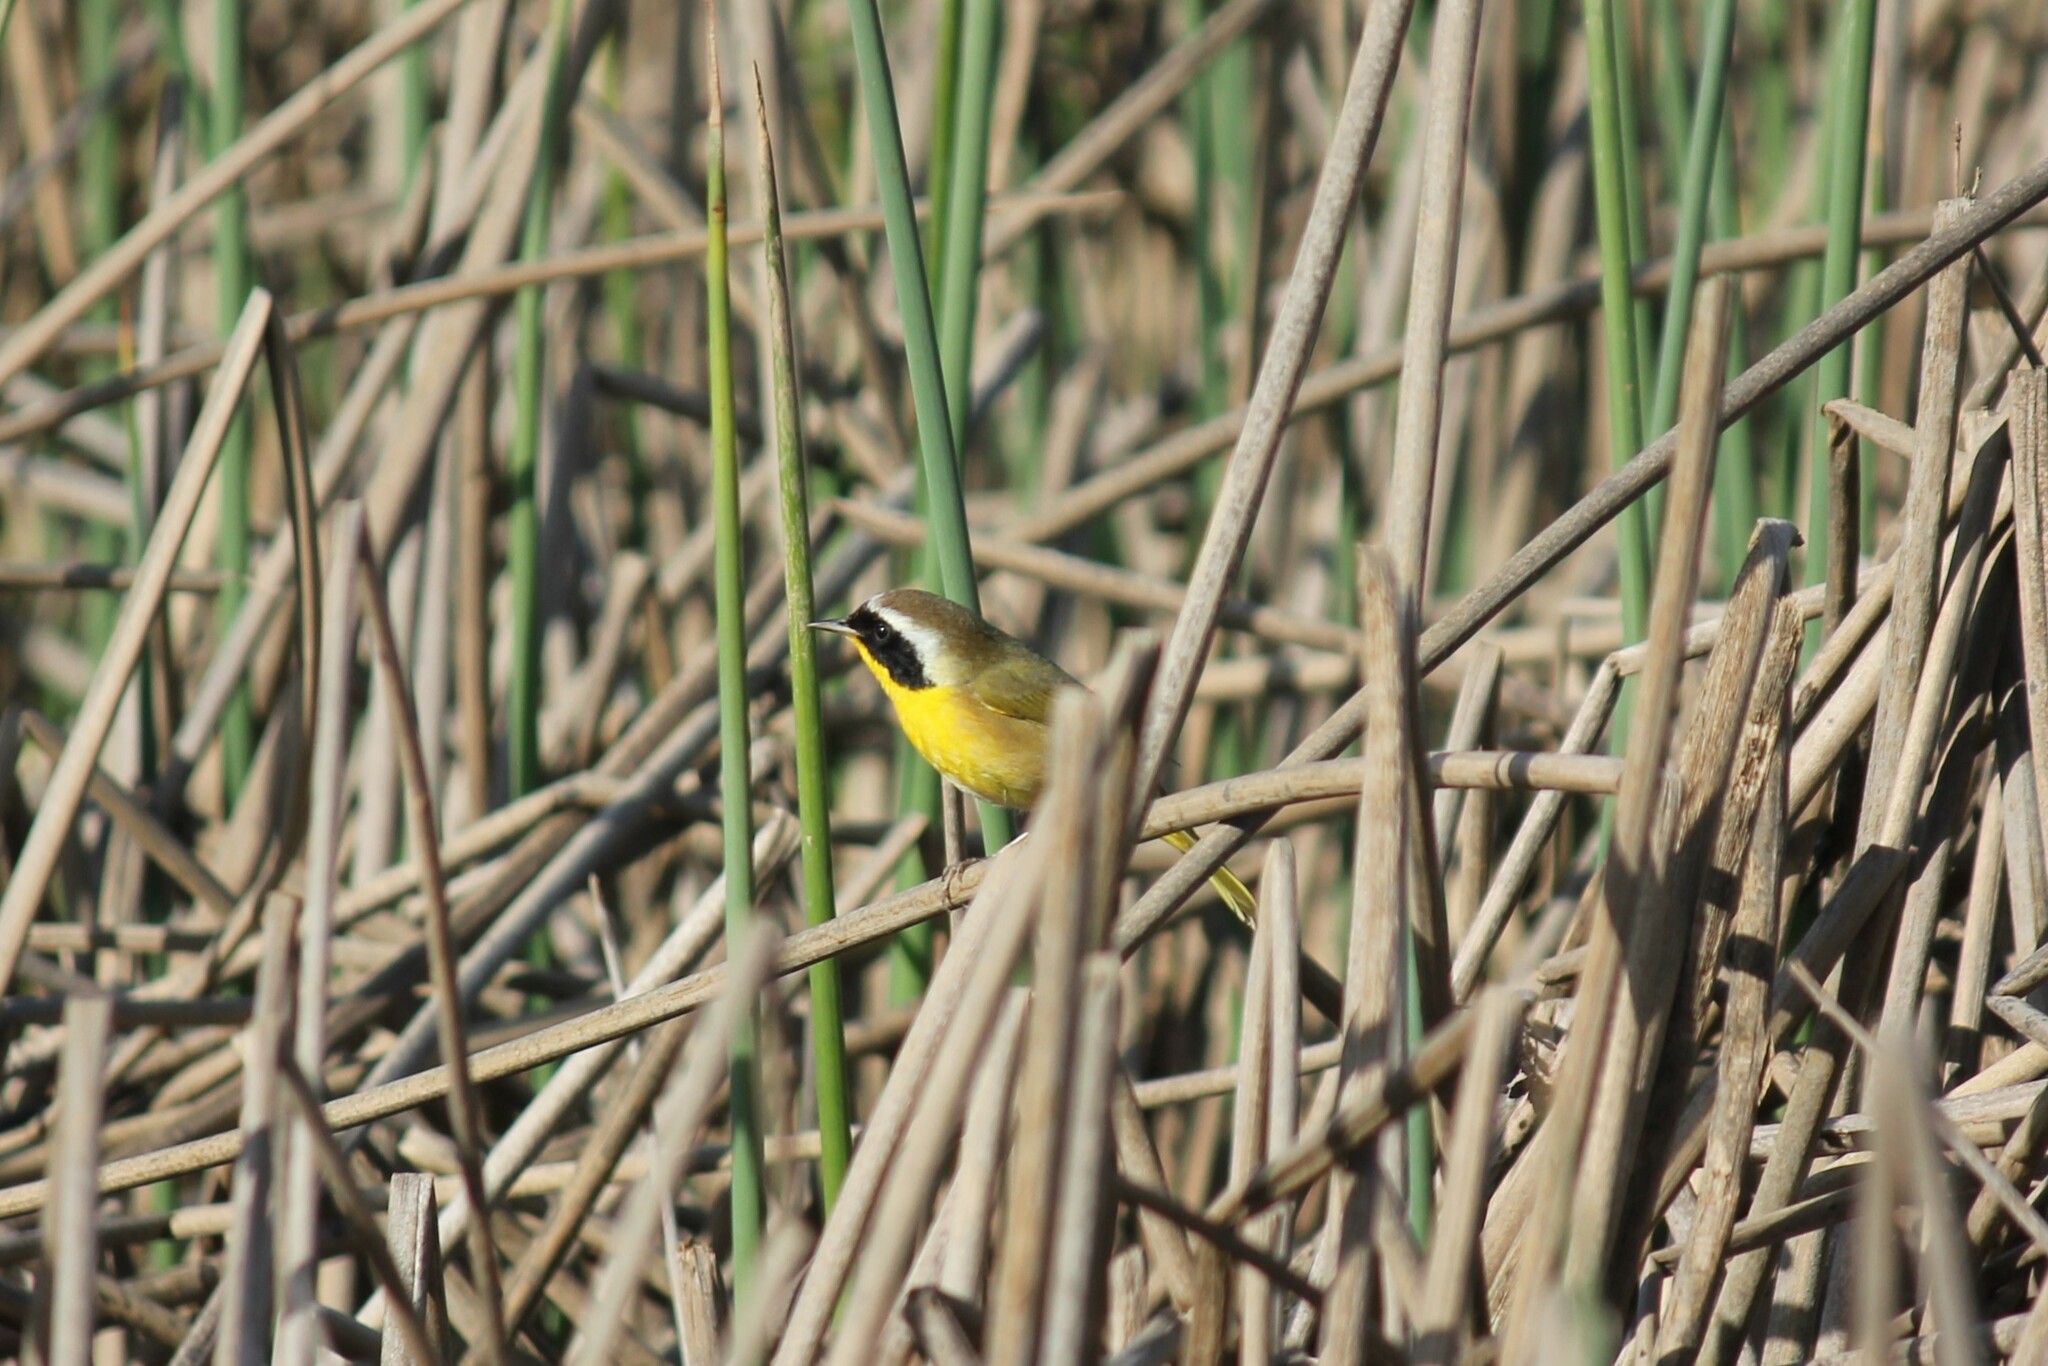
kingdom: Animalia
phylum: Chordata
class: Aves
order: Passeriformes
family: Parulidae
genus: Geothlypis
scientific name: Geothlypis trichas
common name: Common yellowthroat
